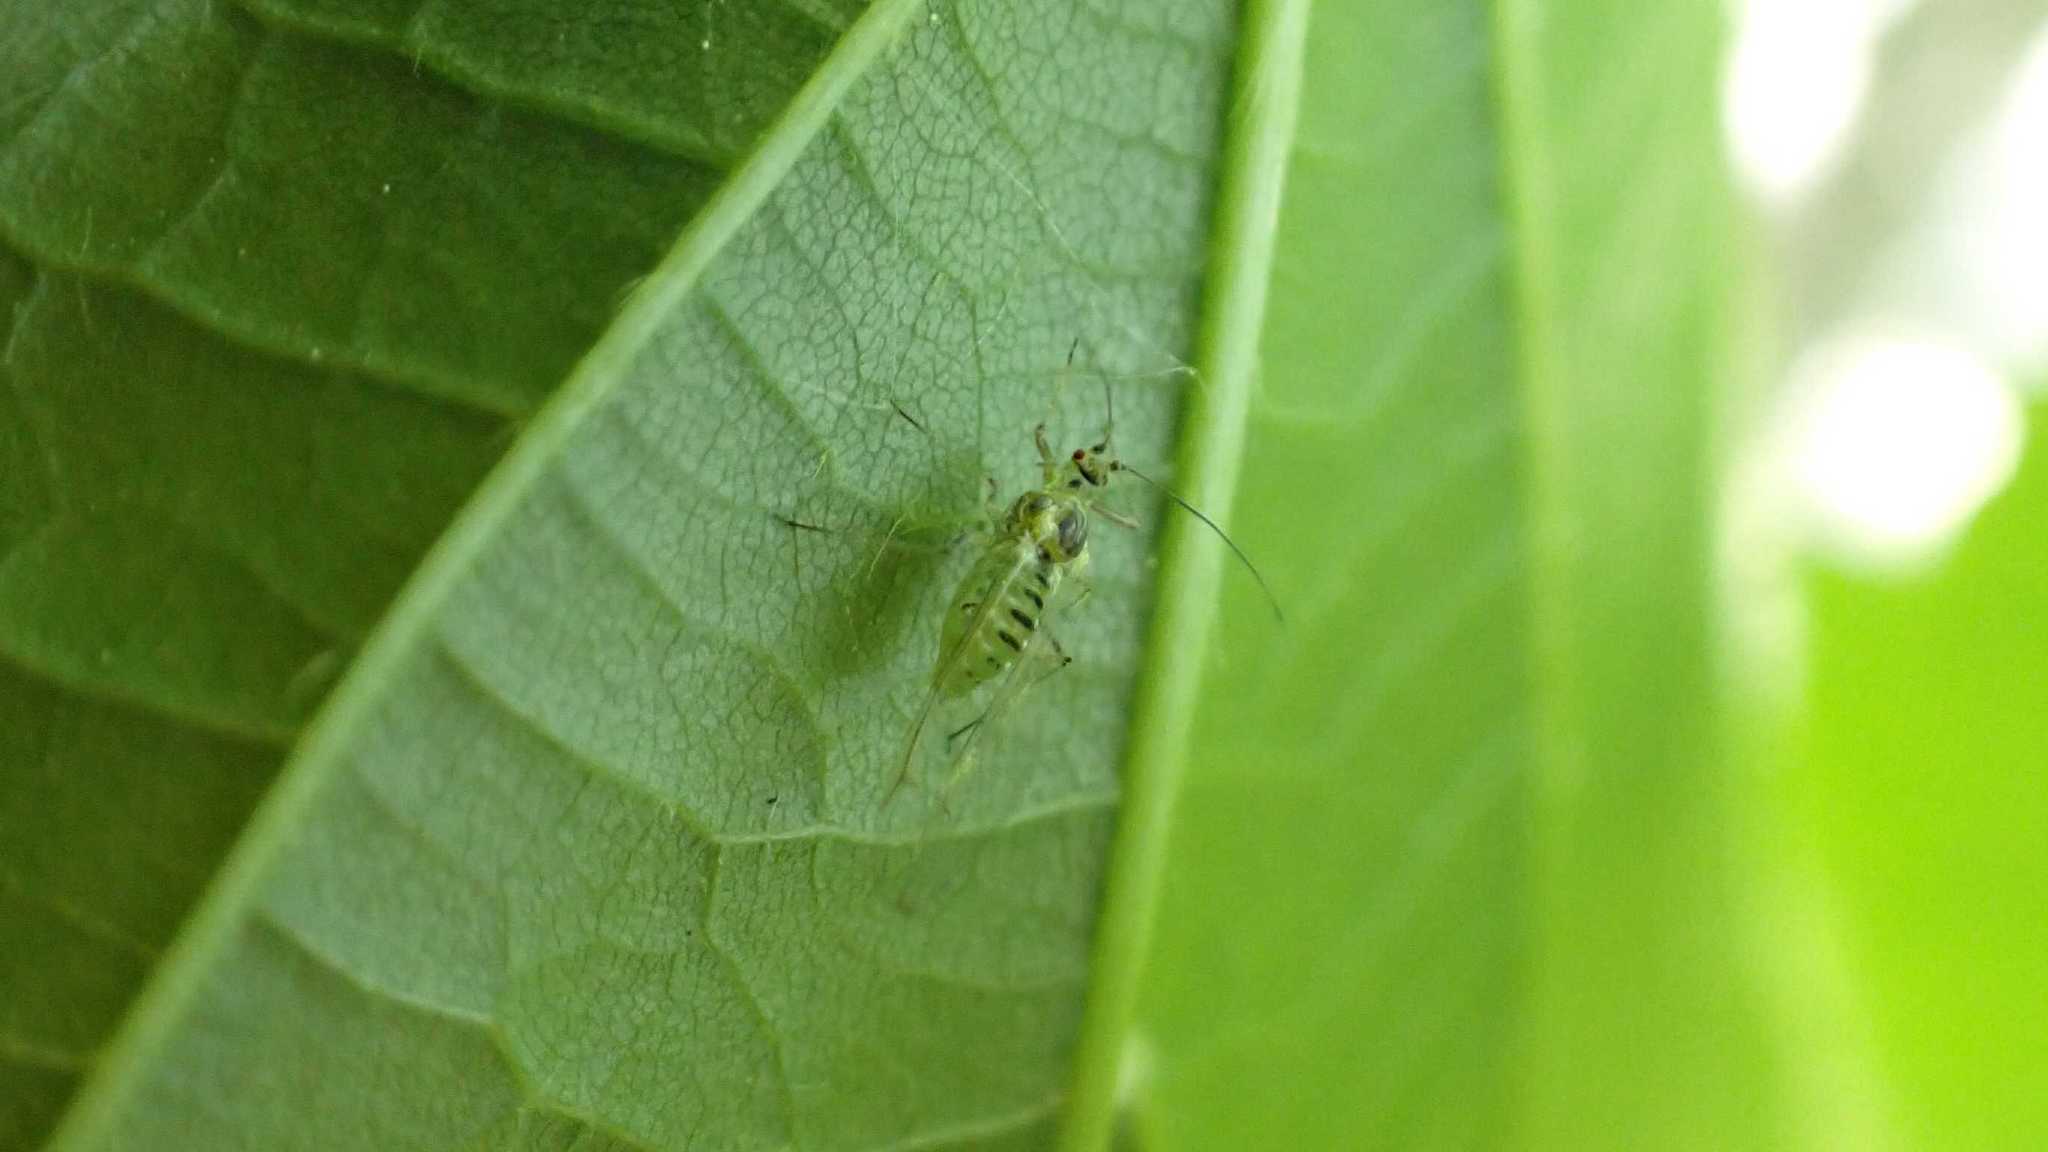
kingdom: Animalia
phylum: Arthropoda
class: Insecta
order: Hemiptera
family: Aphididae
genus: Drepanosiphum
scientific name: Drepanosiphum platanoidis
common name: Common sycamore aphid
